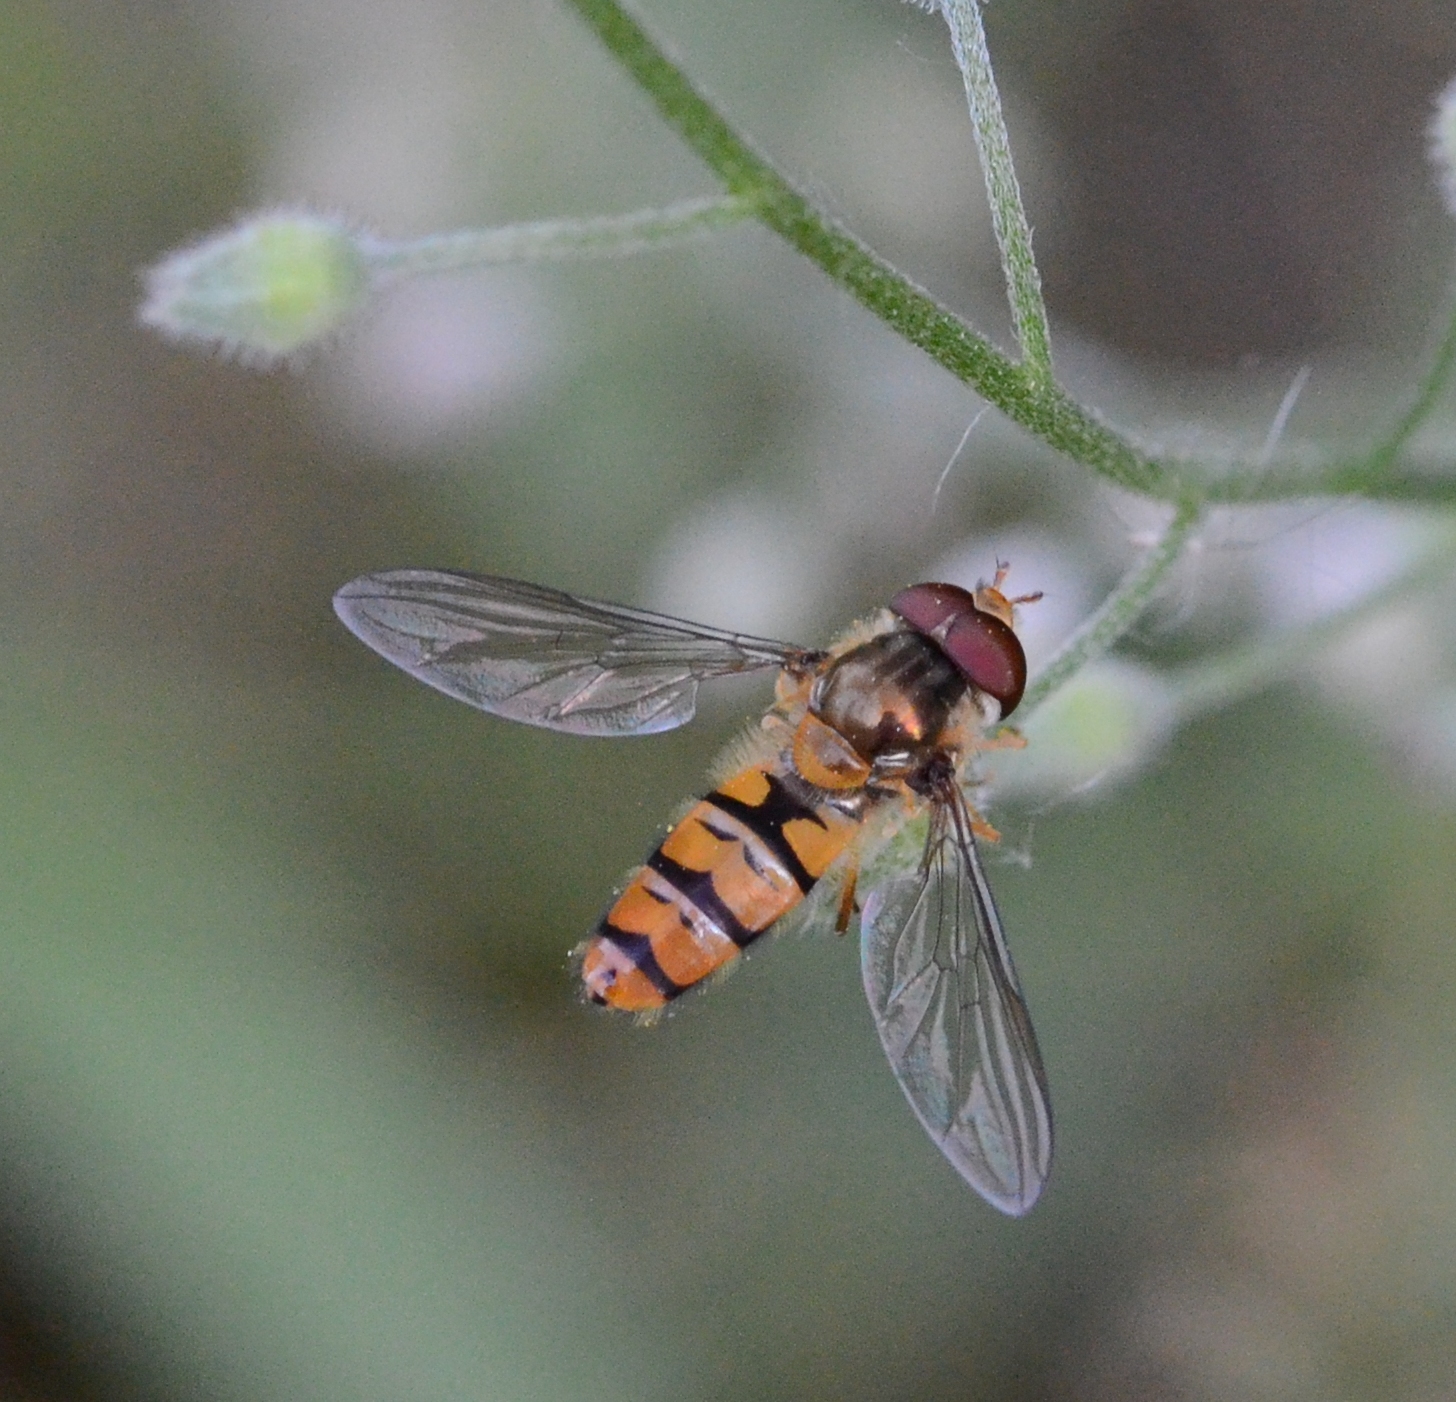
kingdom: Animalia
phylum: Arthropoda
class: Insecta
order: Diptera
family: Syrphidae
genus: Episyrphus
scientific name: Episyrphus balteatus
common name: Marmalade hoverfly
